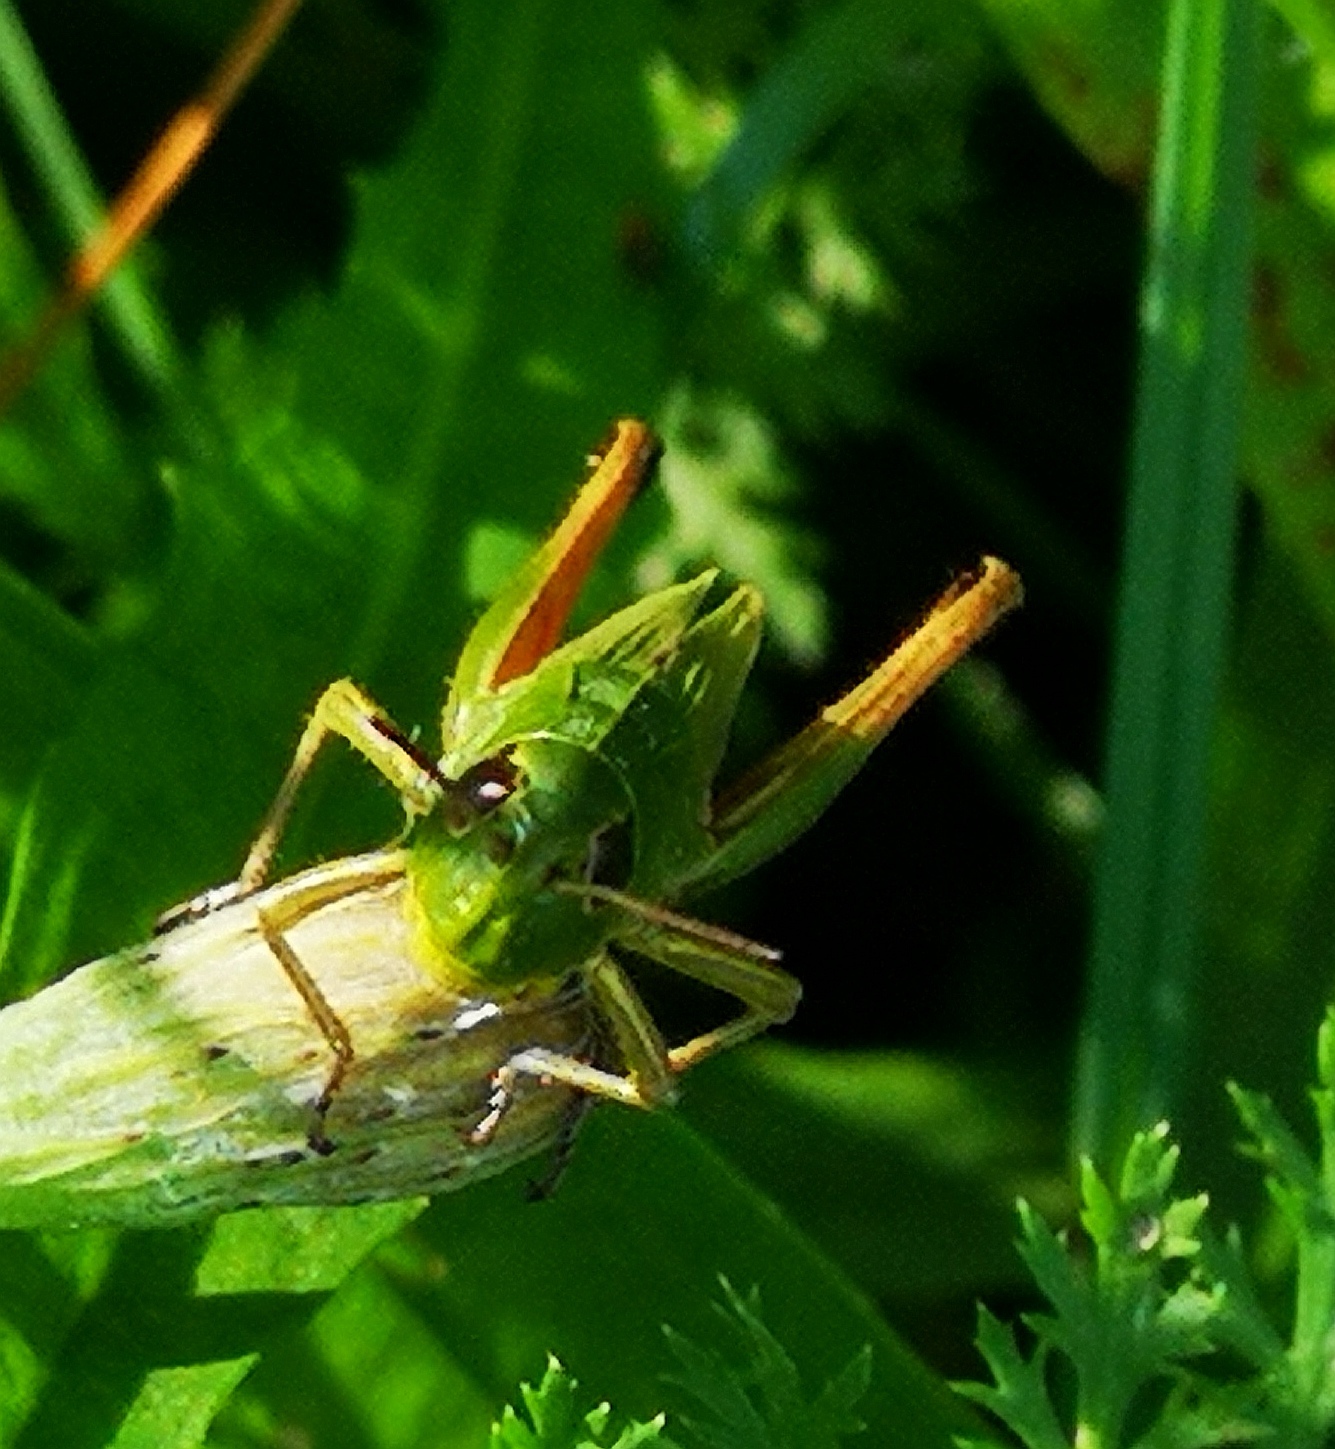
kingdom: Animalia
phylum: Arthropoda
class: Insecta
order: Orthoptera
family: Acrididae
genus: Pseudochorthippus
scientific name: Pseudochorthippus parallelus
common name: Meadow grasshopper
